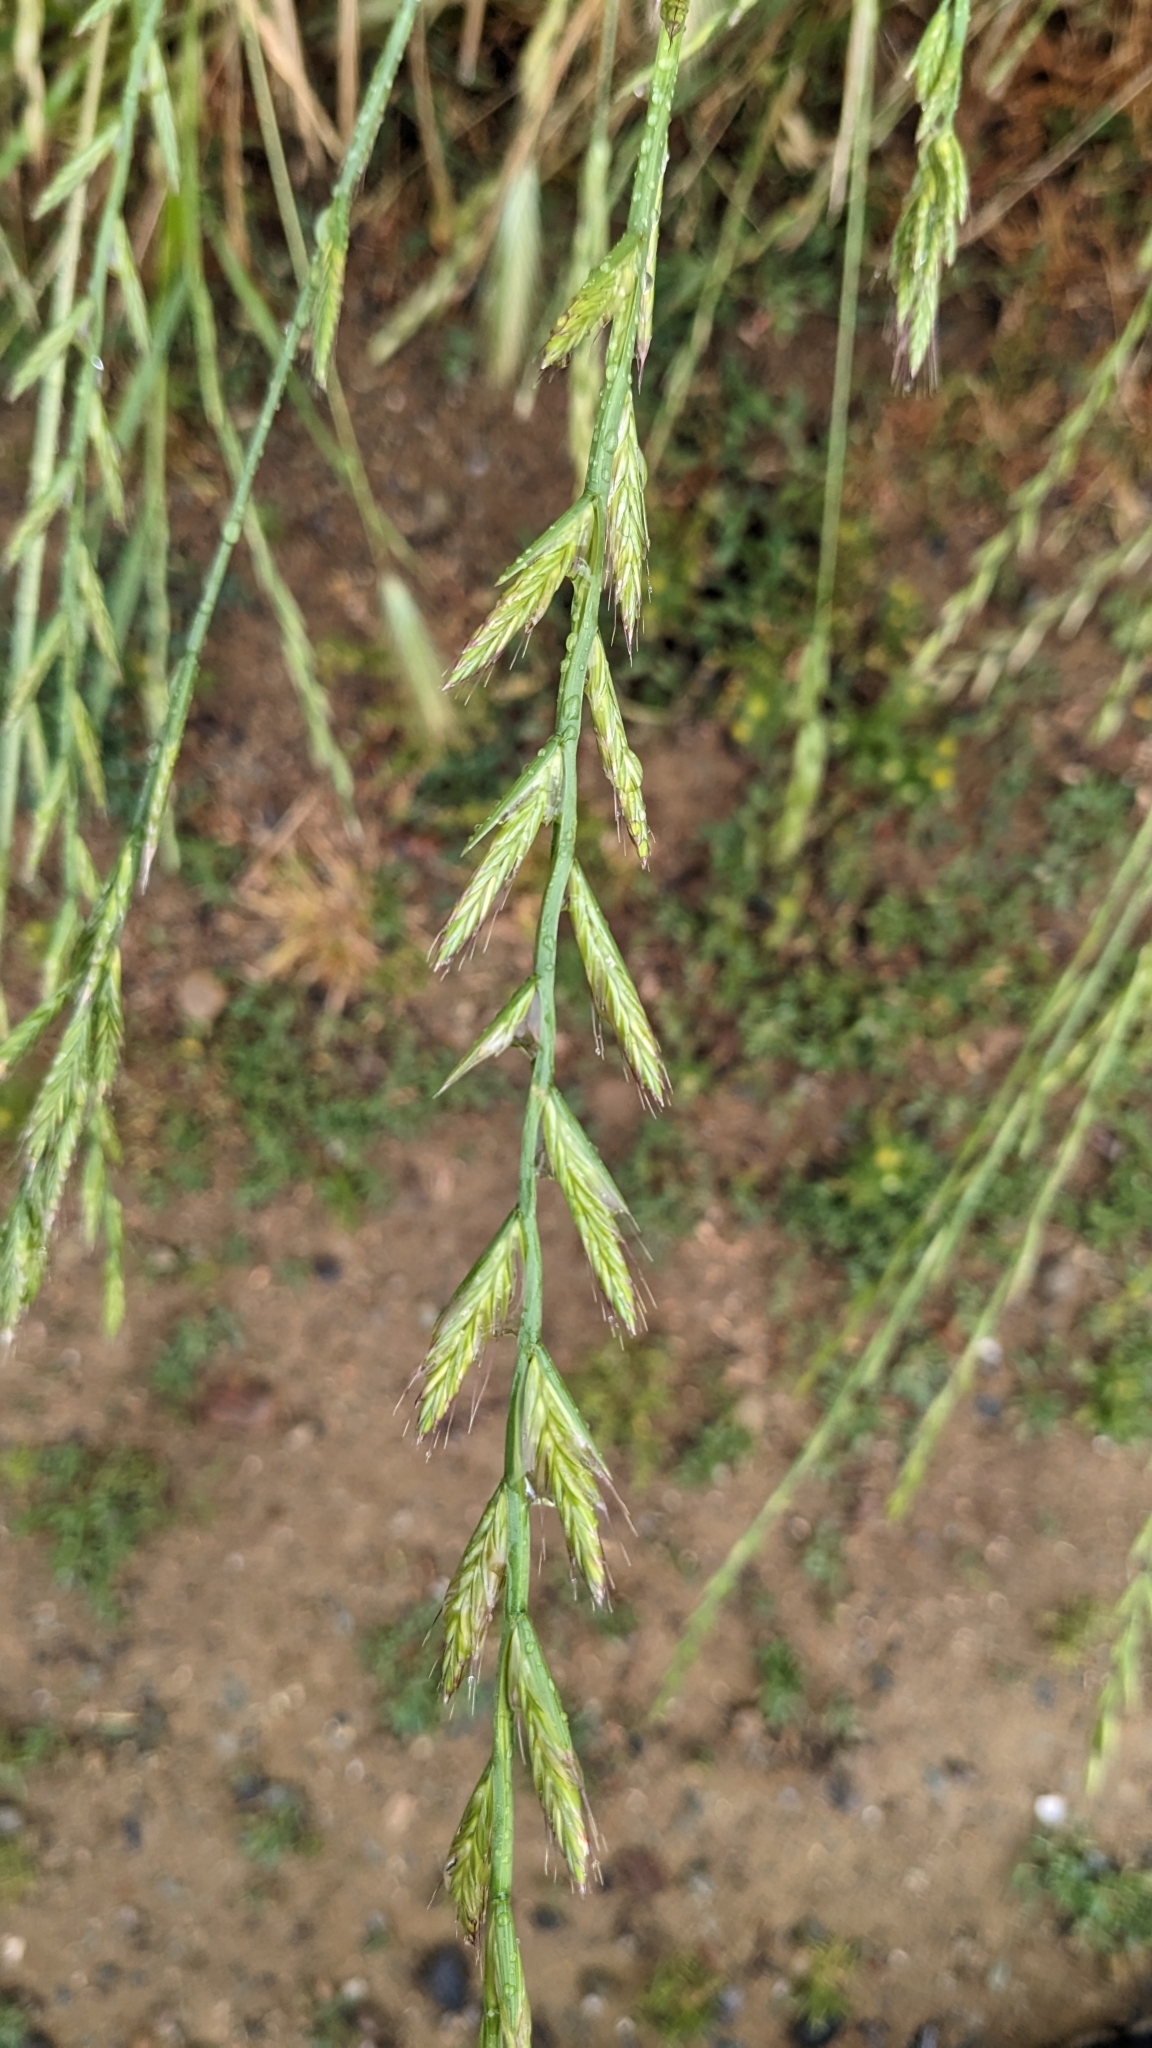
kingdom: Plantae
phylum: Tracheophyta
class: Liliopsida
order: Poales
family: Poaceae
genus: Lolium
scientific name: Lolium multiflorum
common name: Annual ryegrass
